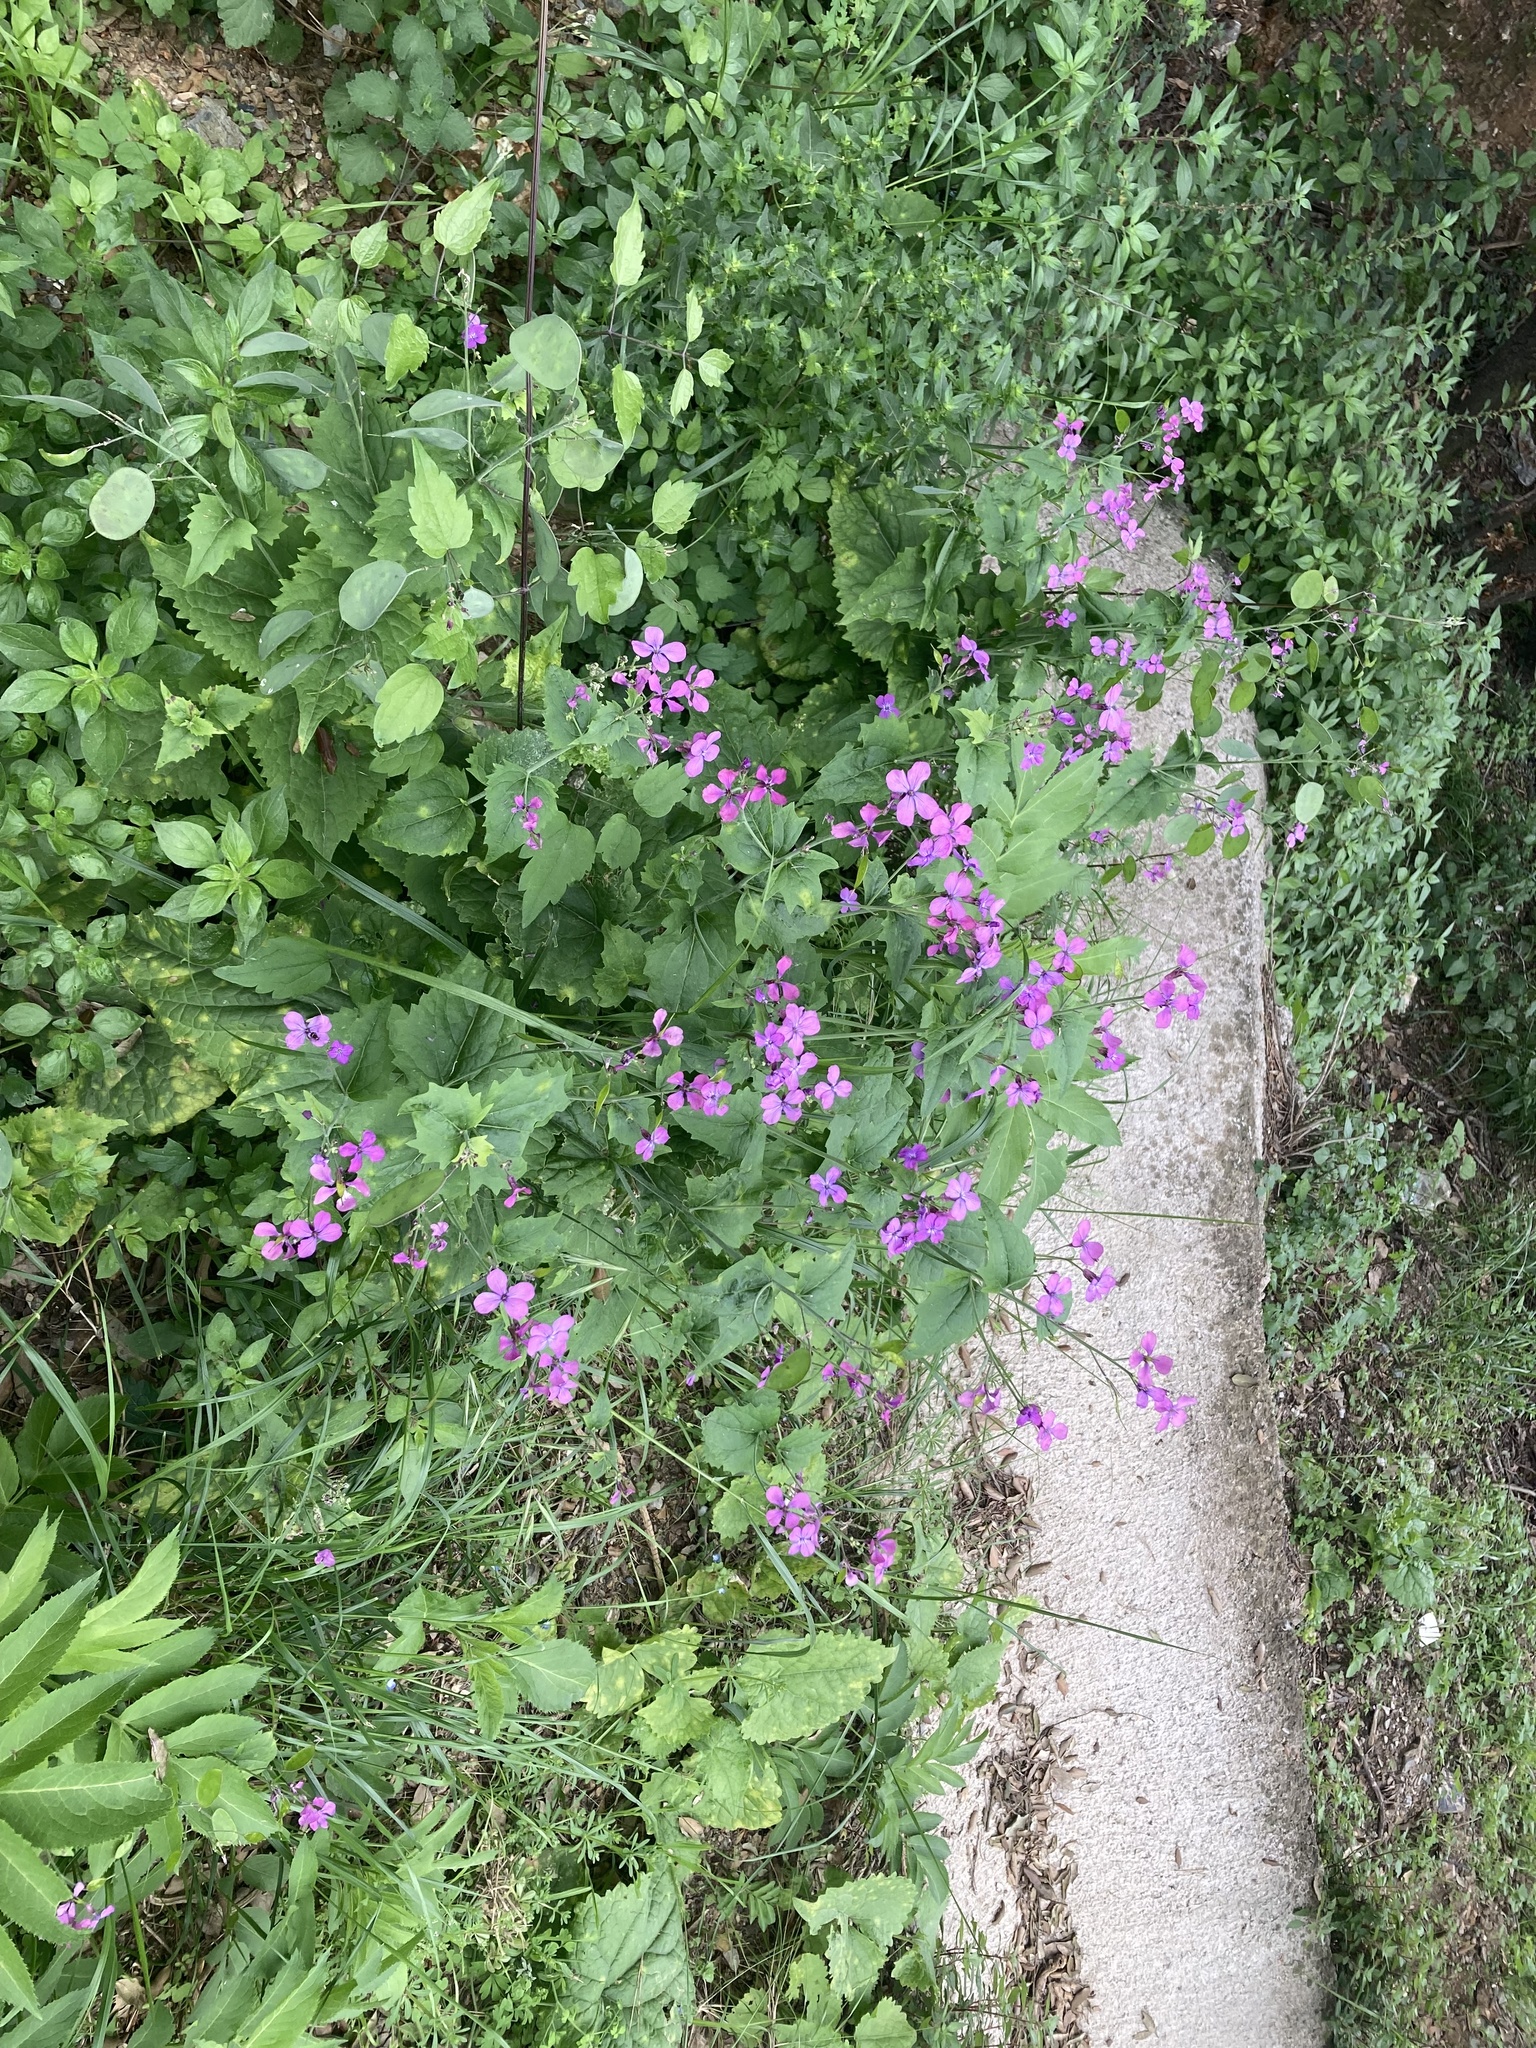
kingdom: Plantae
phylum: Tracheophyta
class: Magnoliopsida
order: Brassicales
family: Brassicaceae
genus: Lunaria
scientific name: Lunaria annua
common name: Honesty
